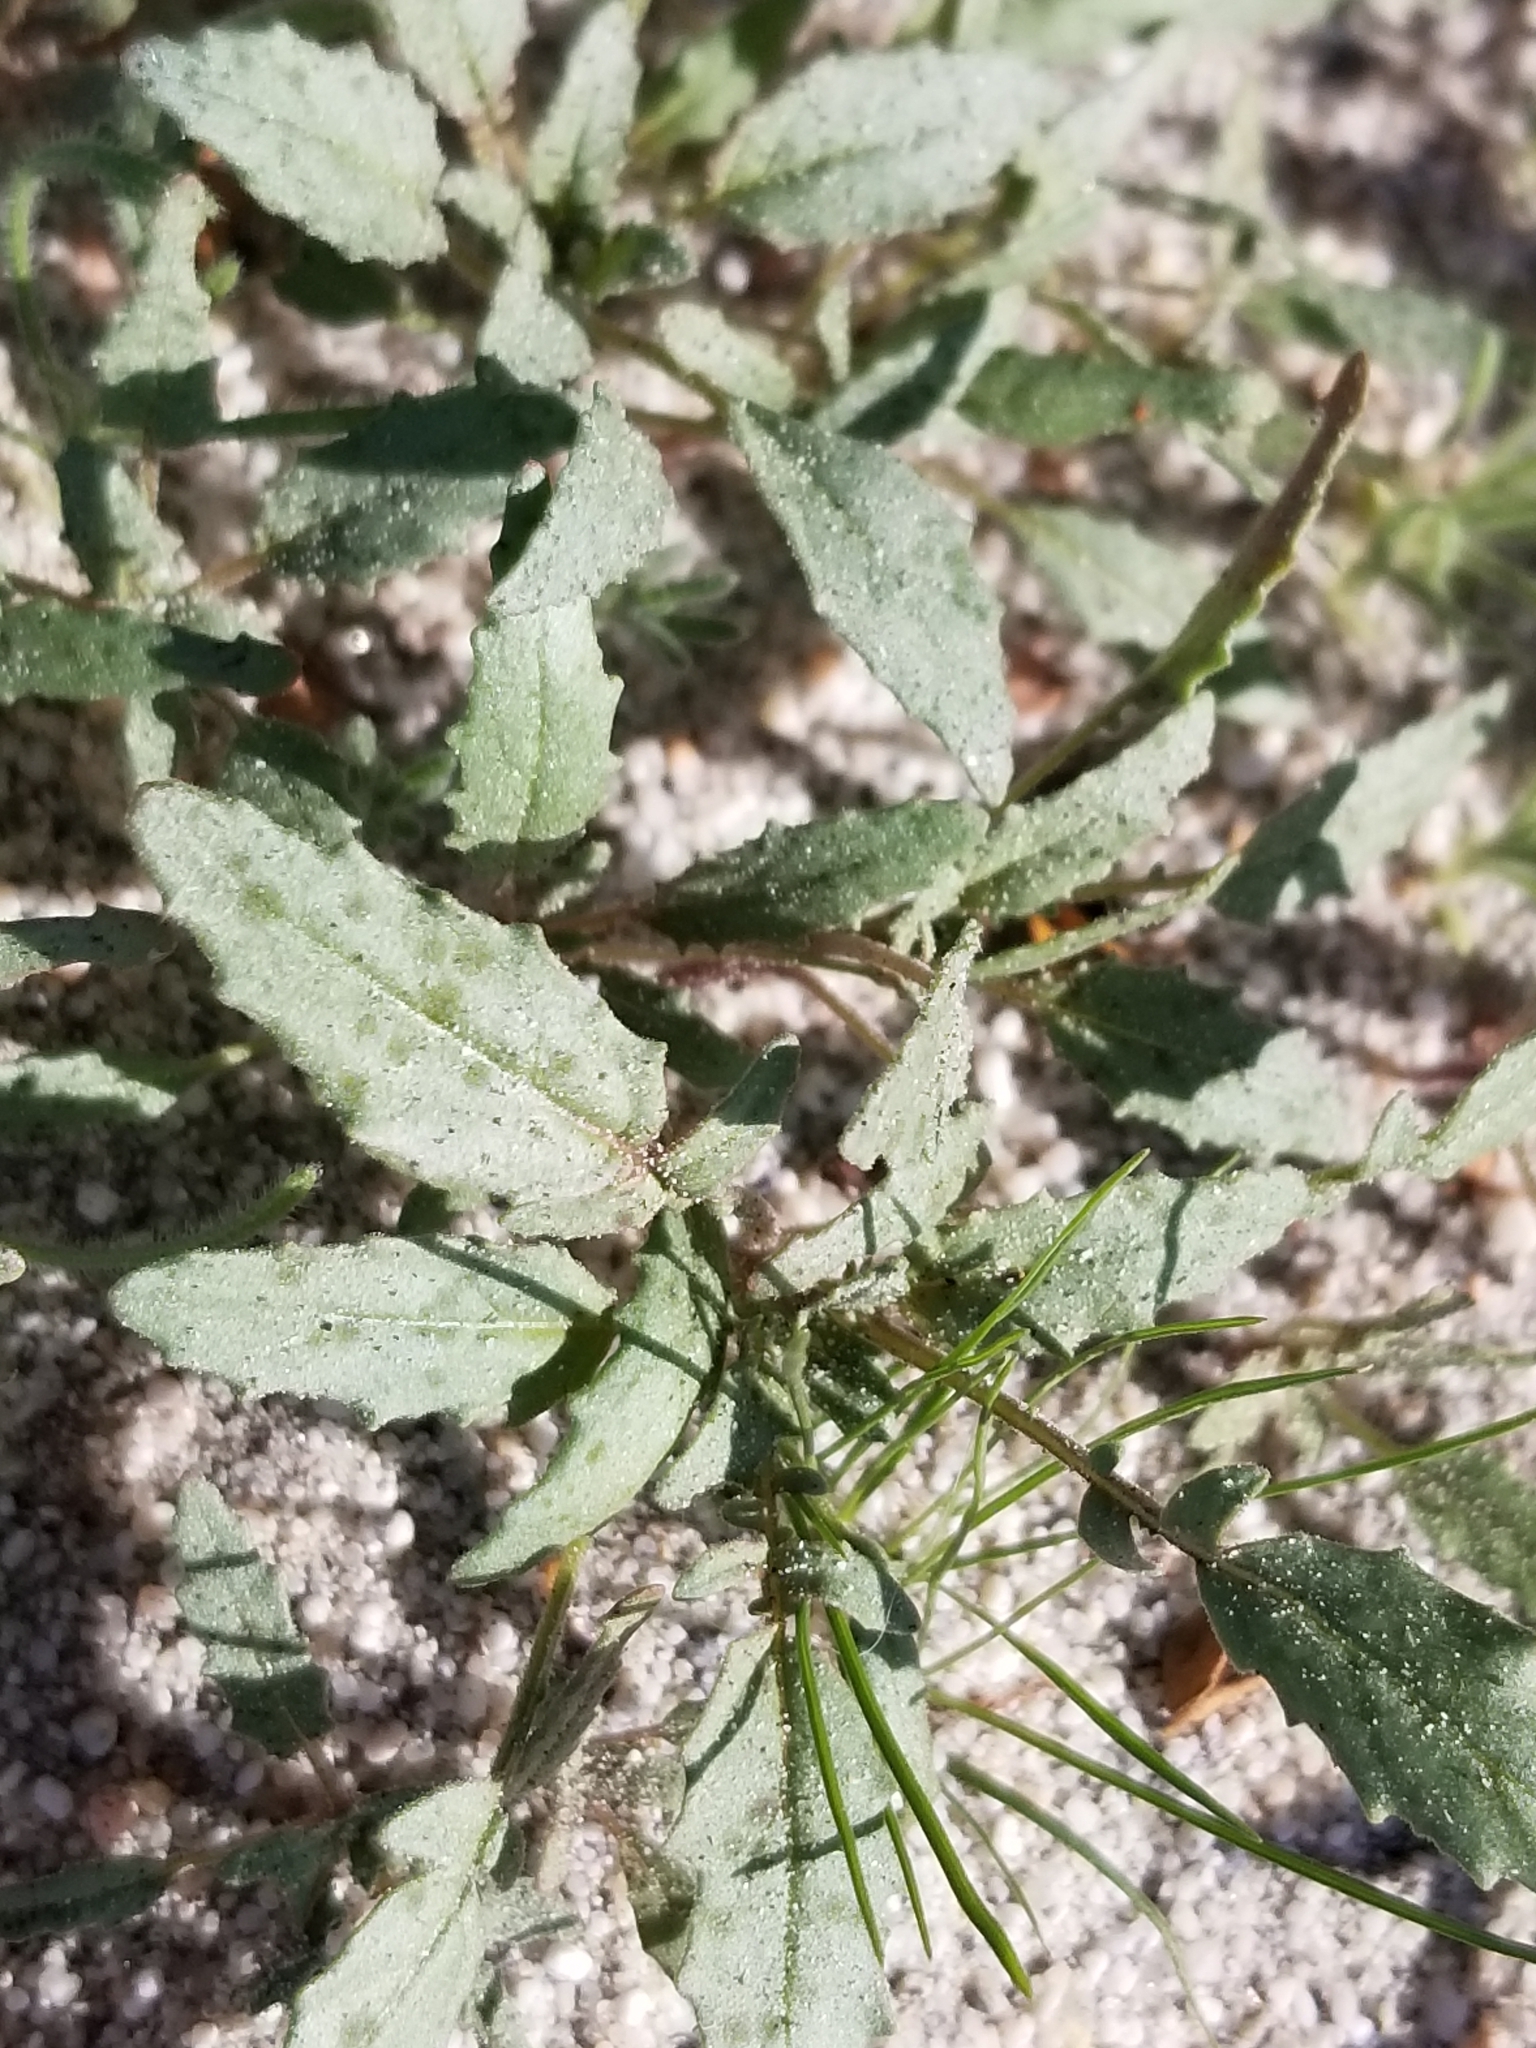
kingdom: Plantae
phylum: Tracheophyta
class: Magnoliopsida
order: Myrtales
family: Onagraceae
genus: Chylismia
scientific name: Chylismia claviformis
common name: Browneyes
